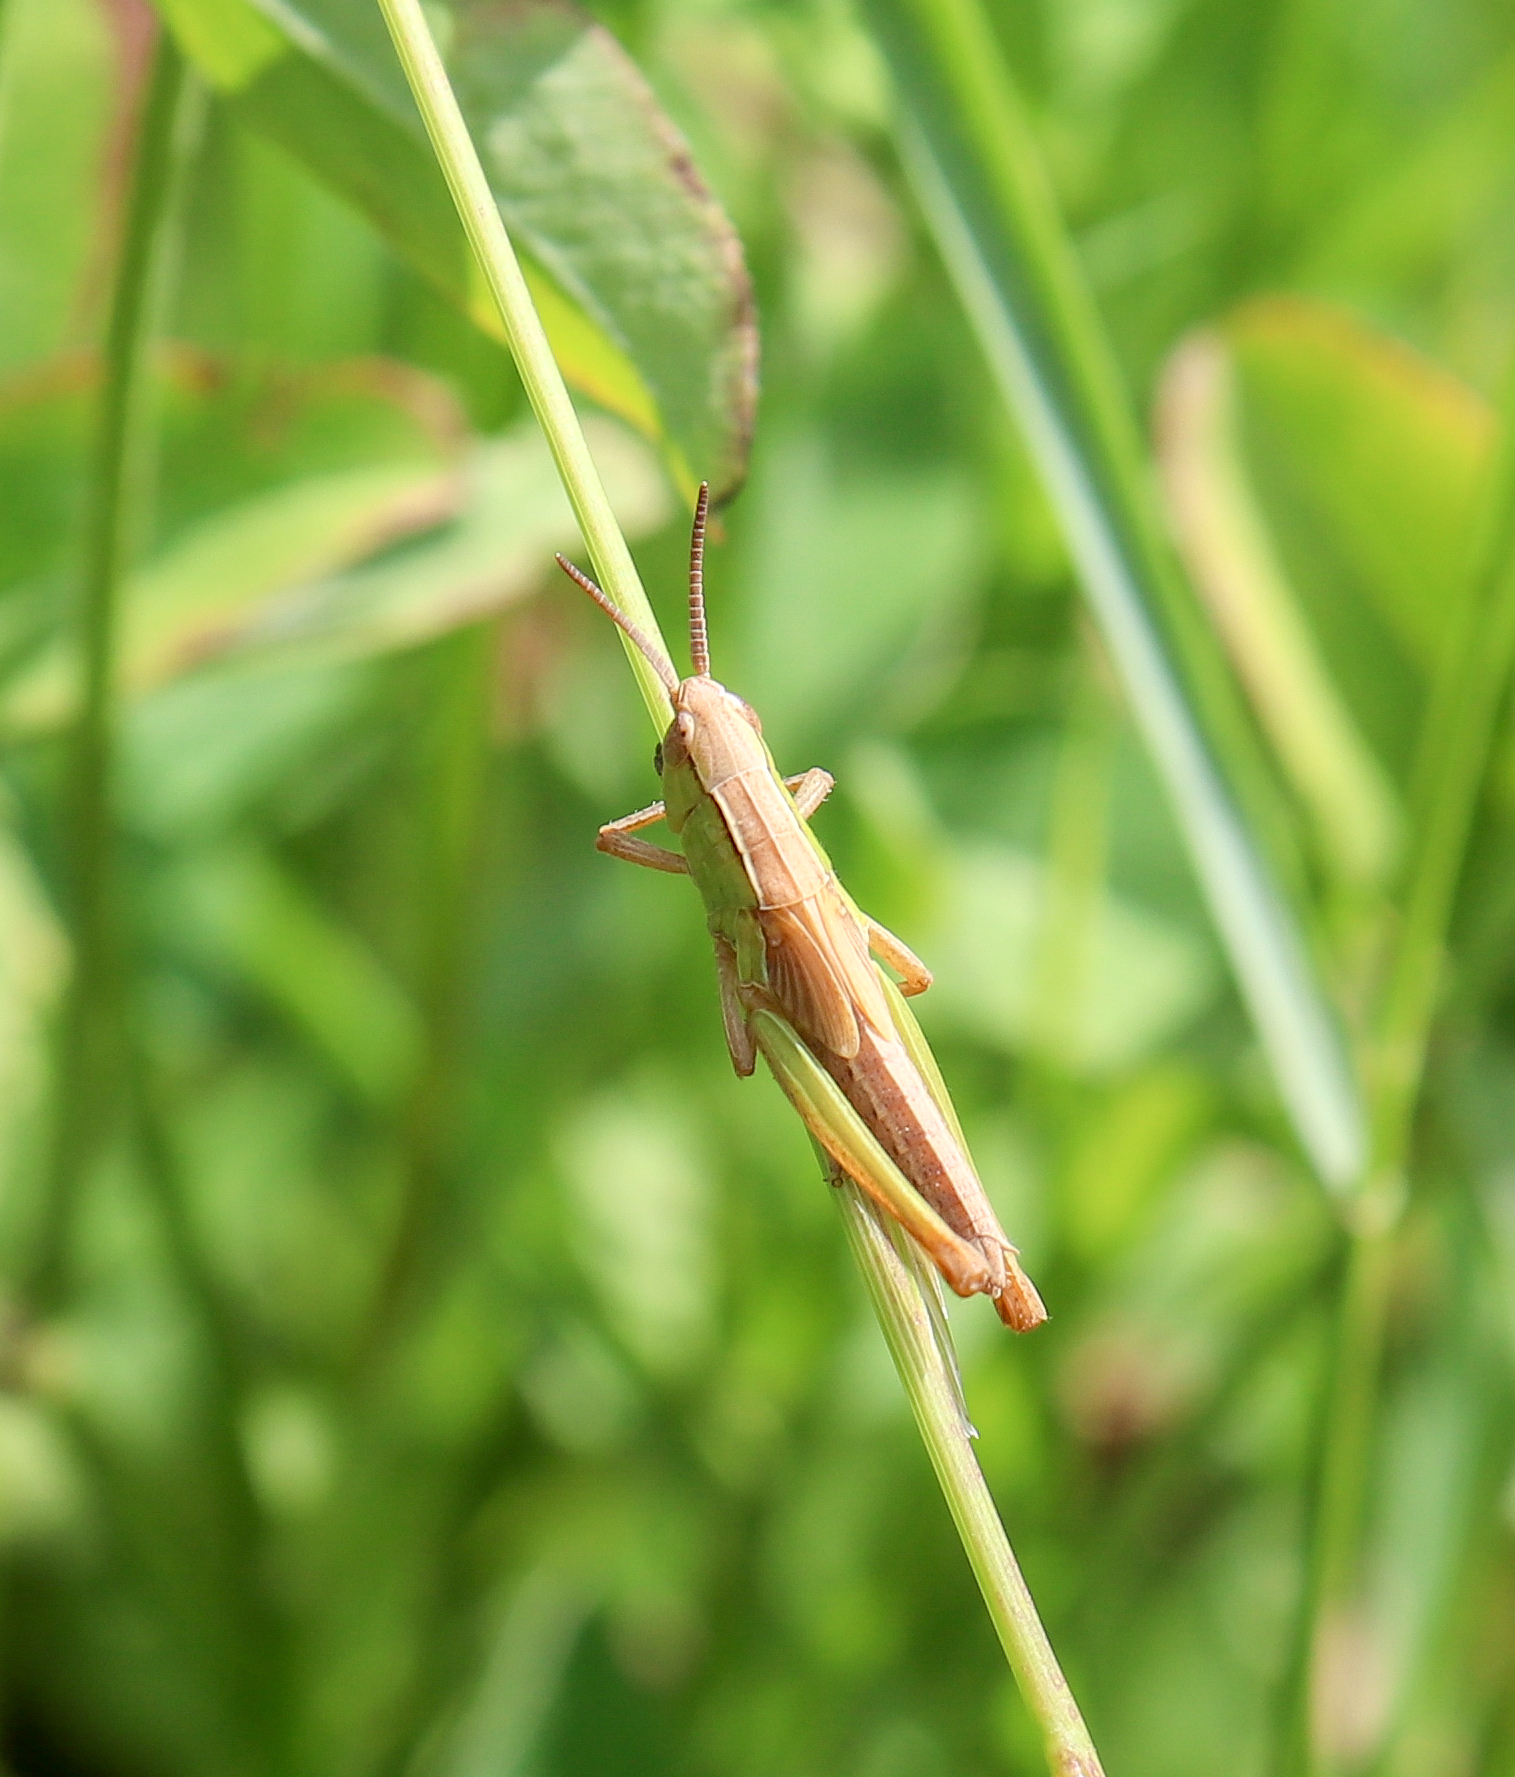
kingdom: Animalia
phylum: Arthropoda
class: Insecta
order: Orthoptera
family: Acrididae
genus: Chorthippus
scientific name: Chorthippus albomarginatus
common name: Lesser marsh grasshopper
